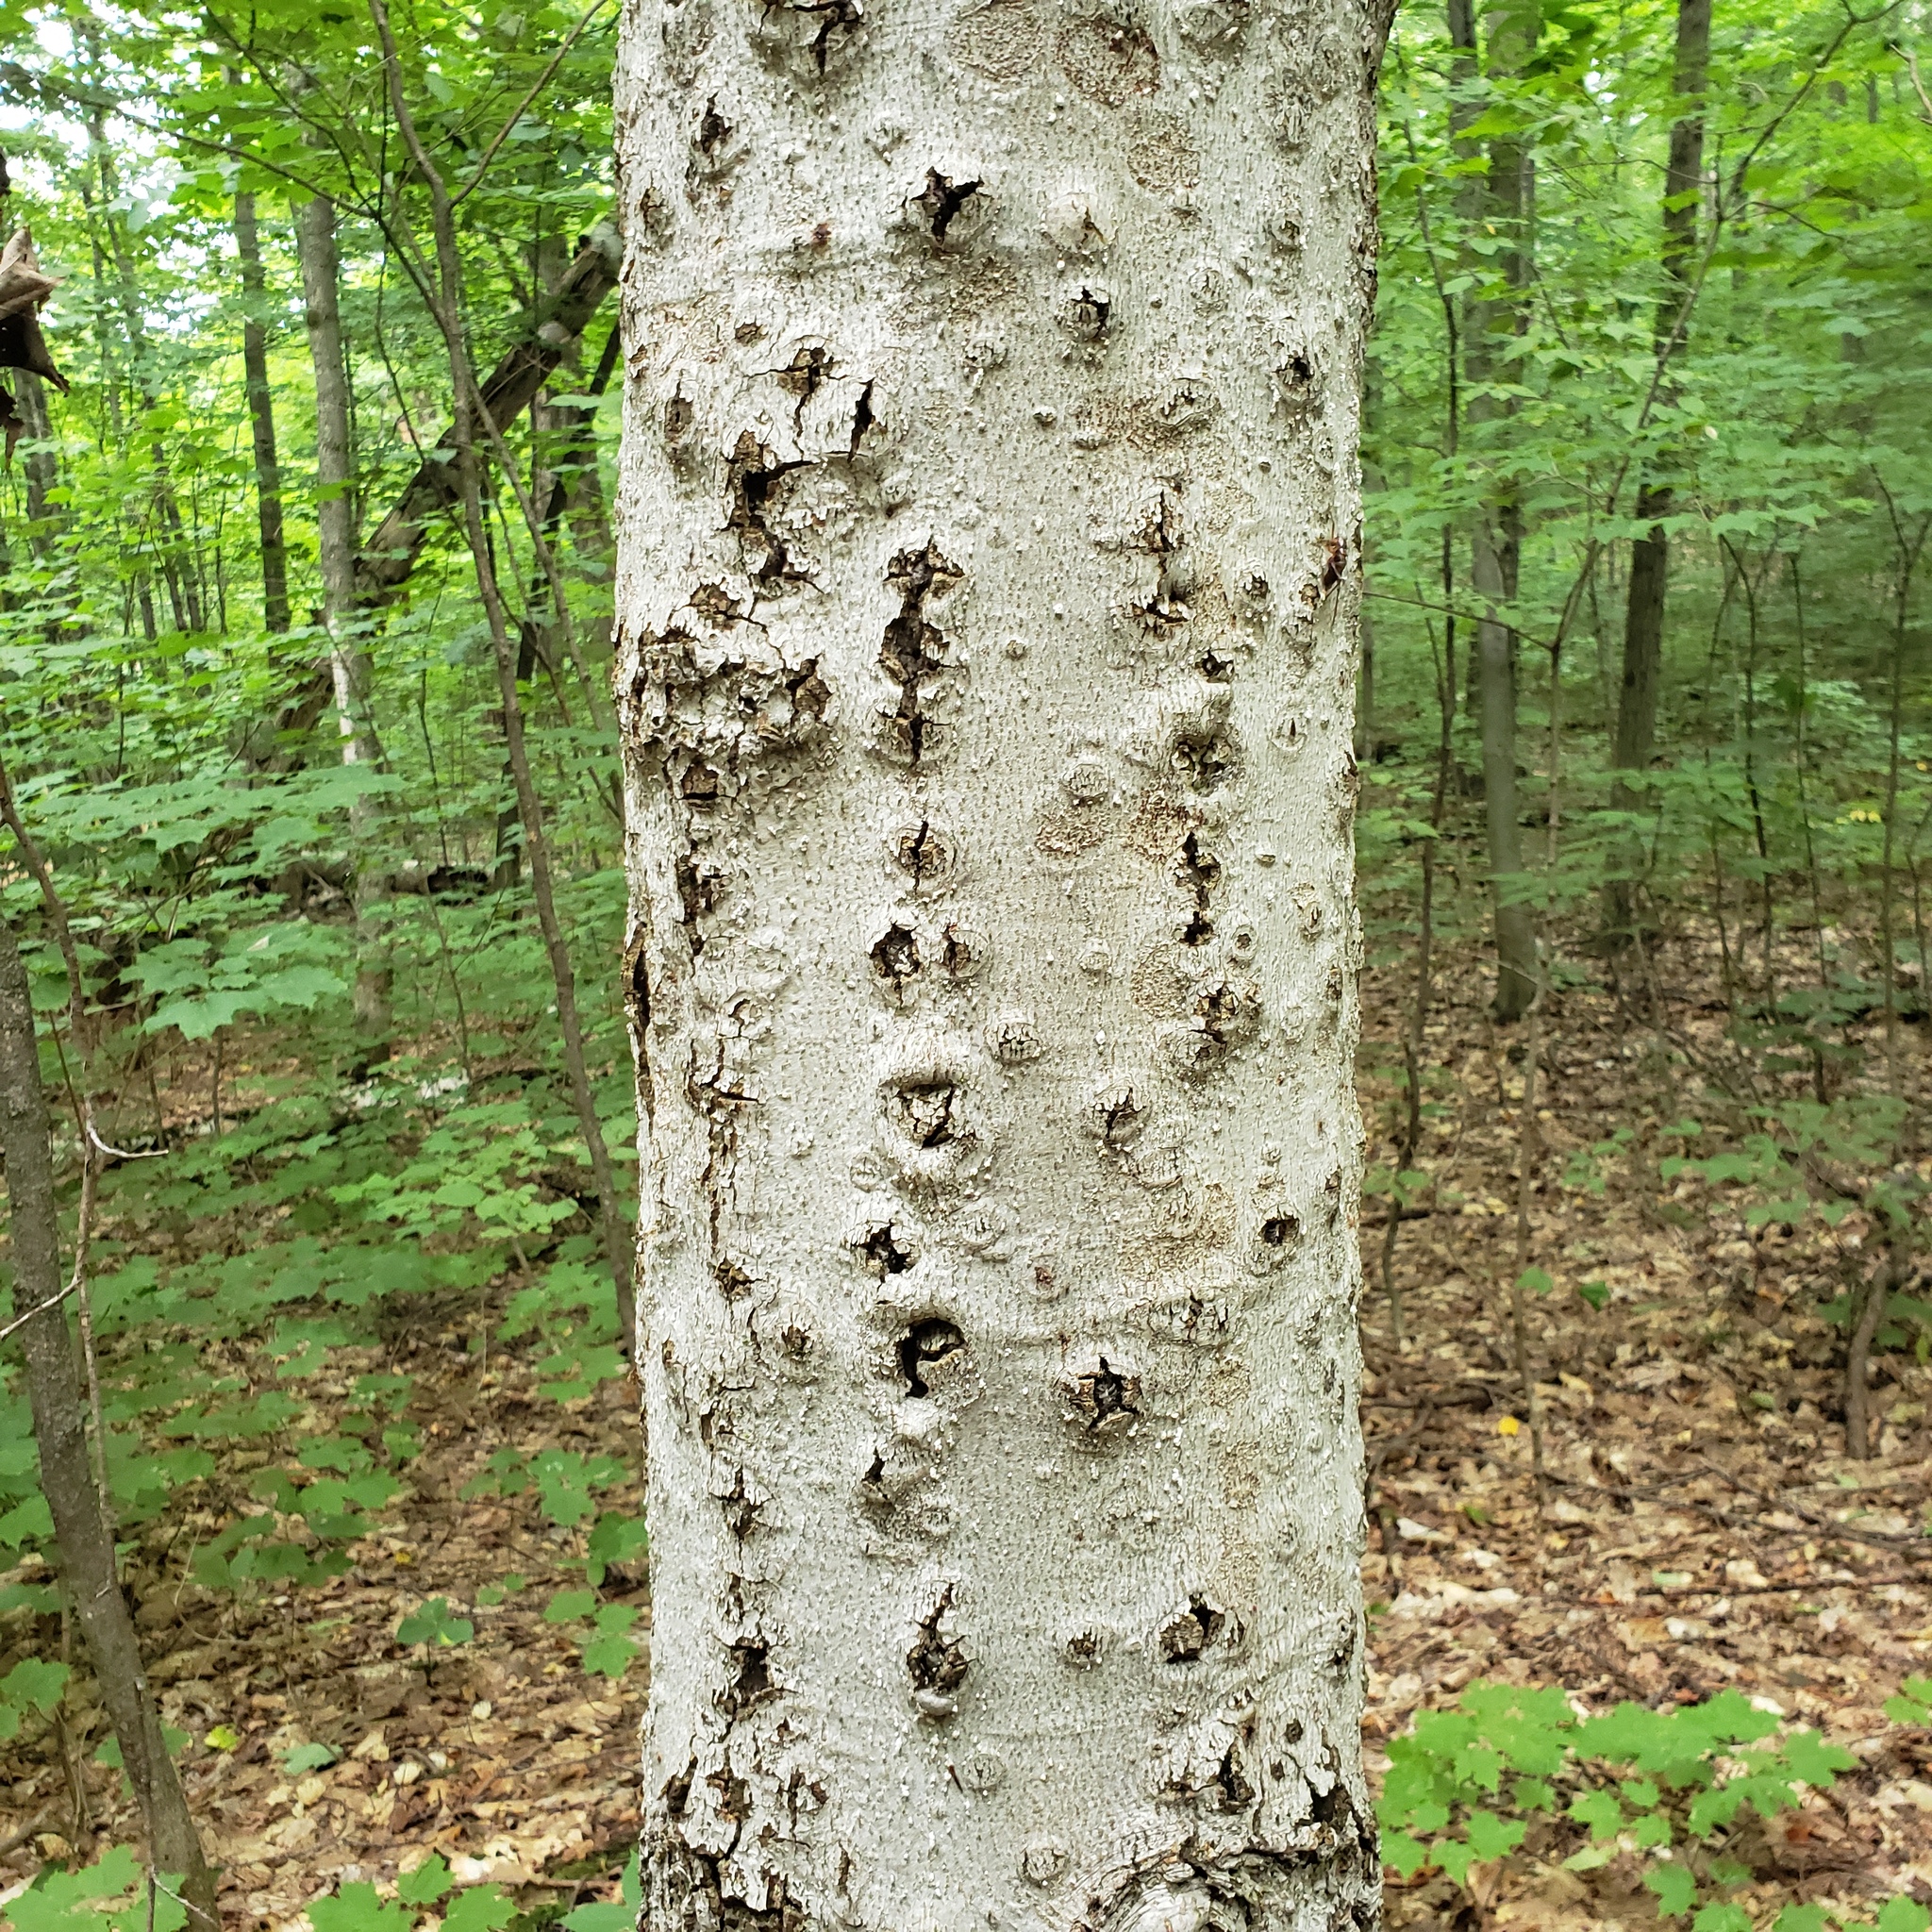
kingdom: Fungi
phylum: Ascomycota
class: Sordariomycetes
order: Hypocreales
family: Nectriaceae
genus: Neonectria
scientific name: Neonectria faginata
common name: Beech bark canker
